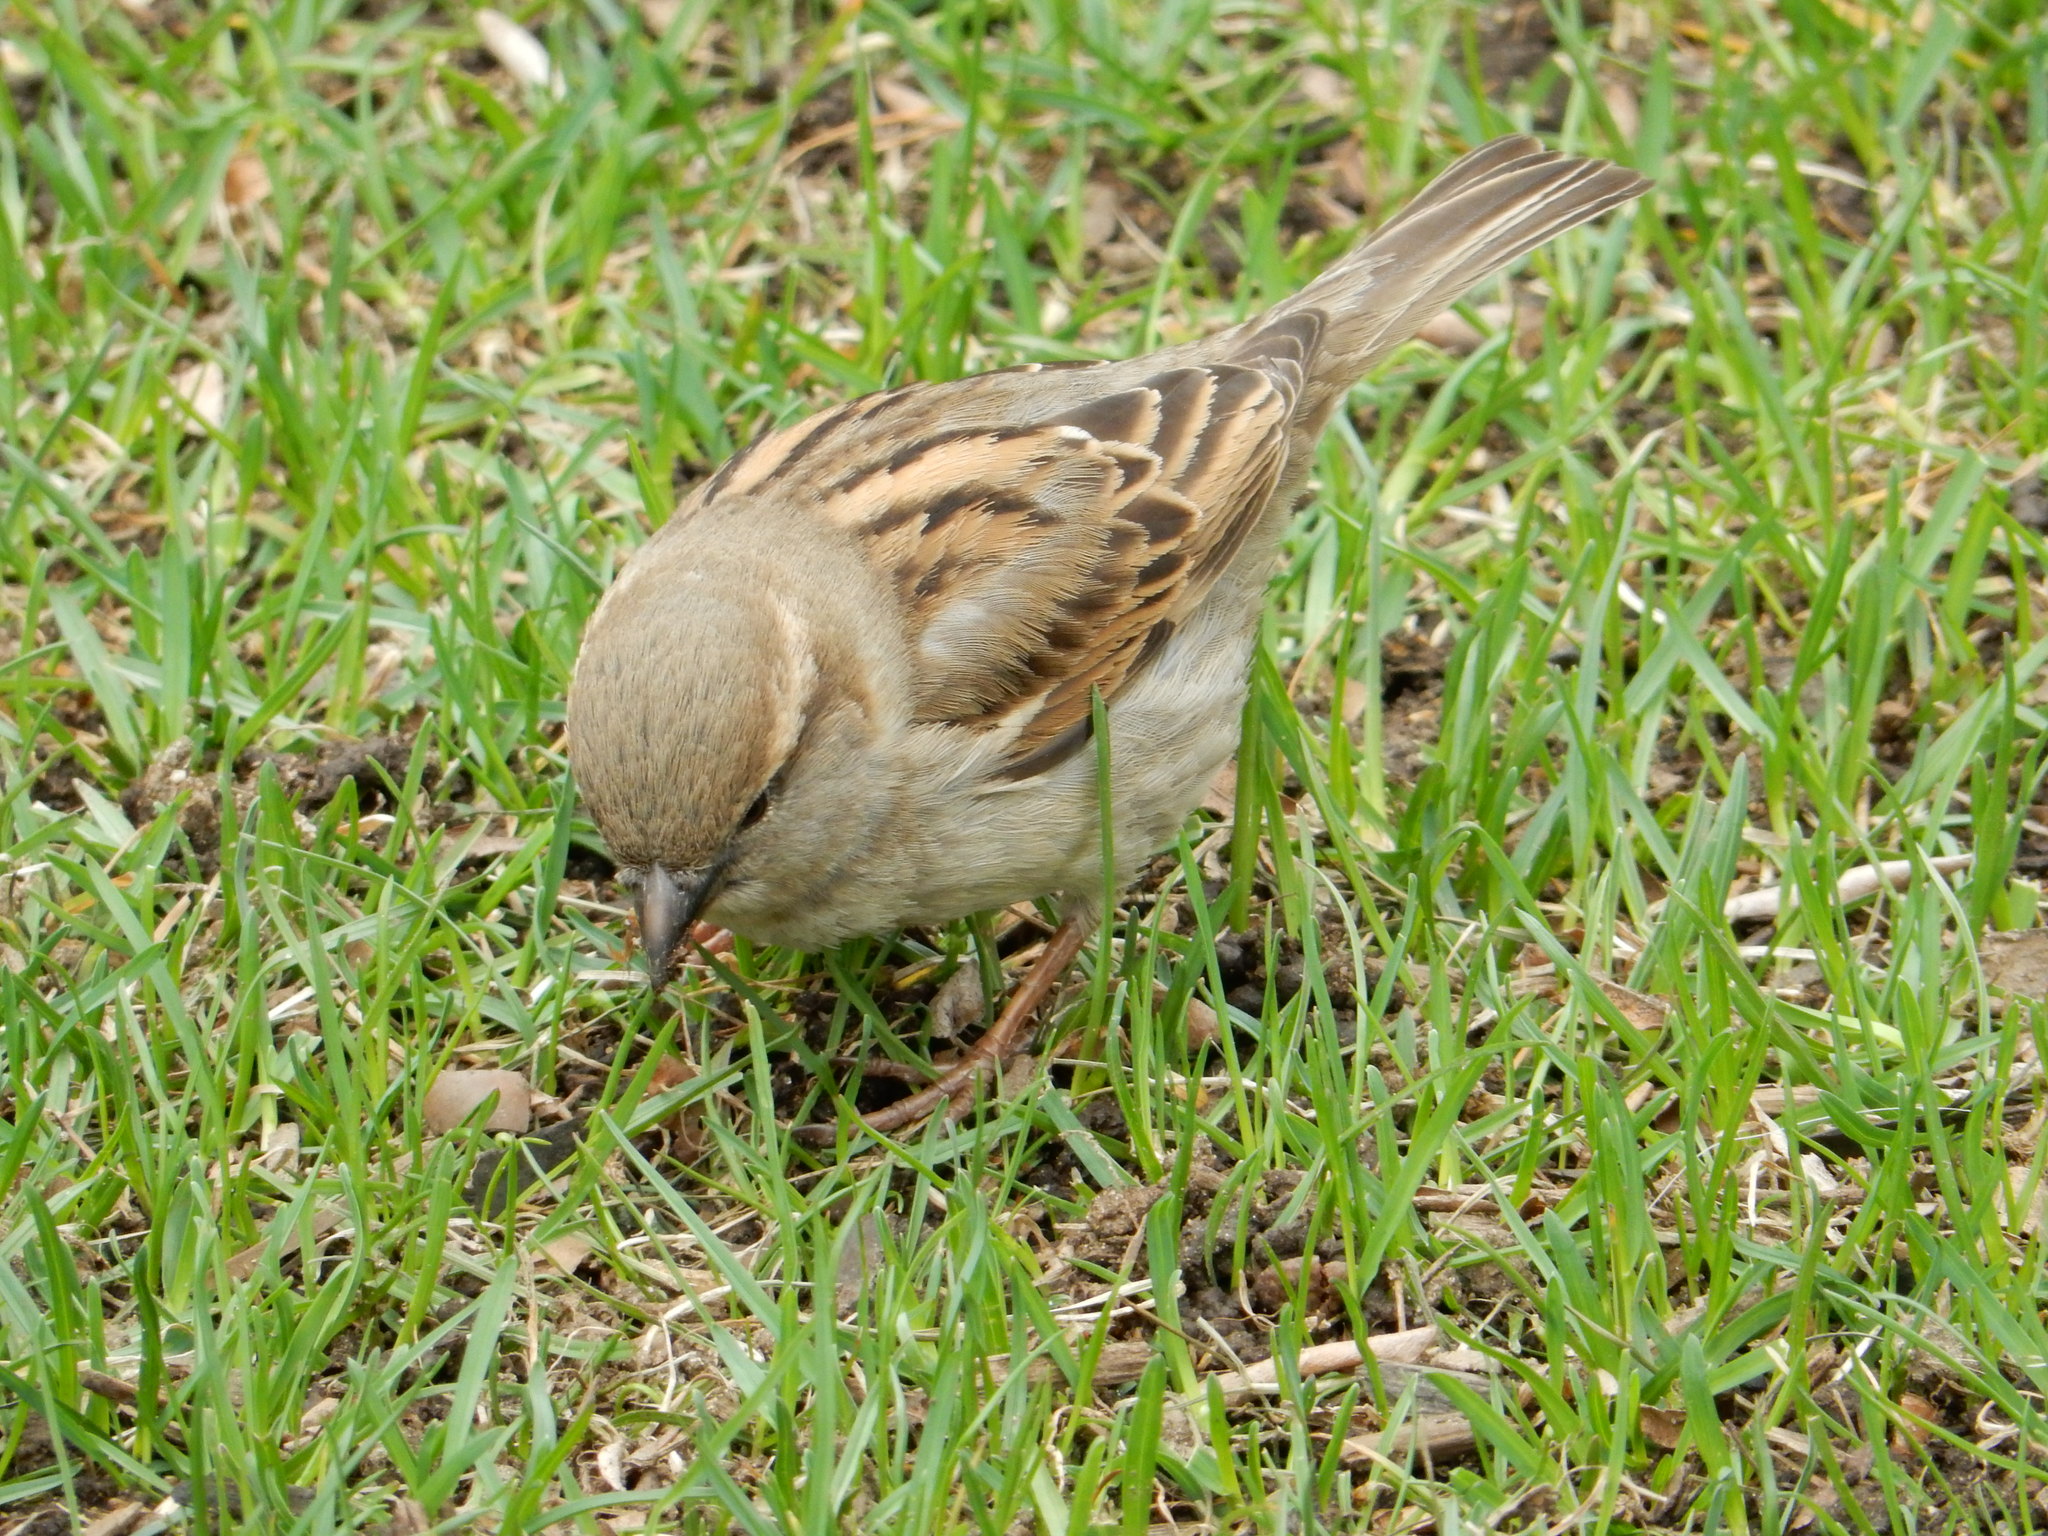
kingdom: Animalia
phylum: Chordata
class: Aves
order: Passeriformes
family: Passeridae
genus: Passer
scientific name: Passer domesticus
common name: House sparrow
